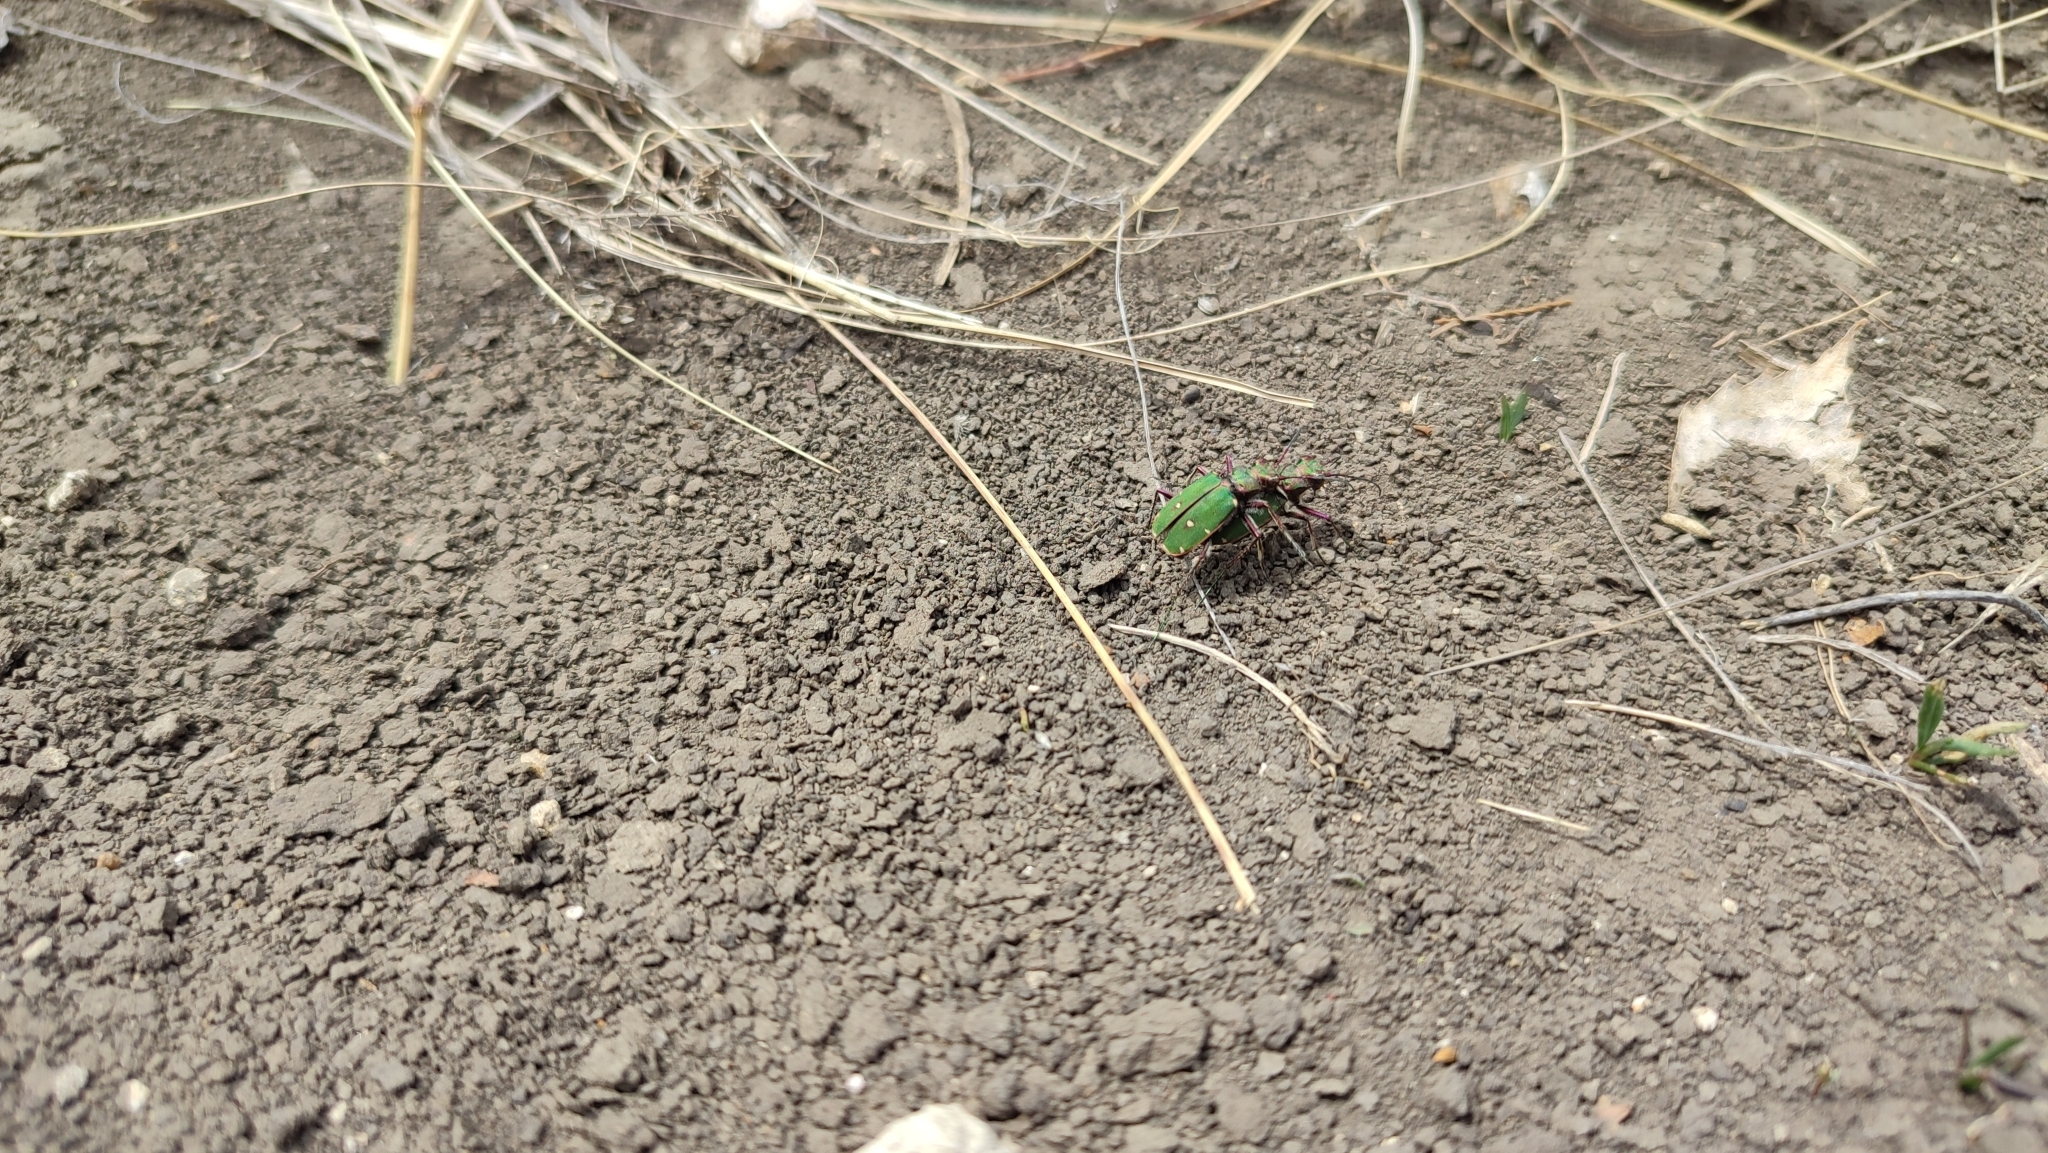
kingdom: Animalia
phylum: Arthropoda
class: Insecta
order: Coleoptera
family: Carabidae
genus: Cicindela
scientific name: Cicindela campestris
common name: Common tiger beetle
